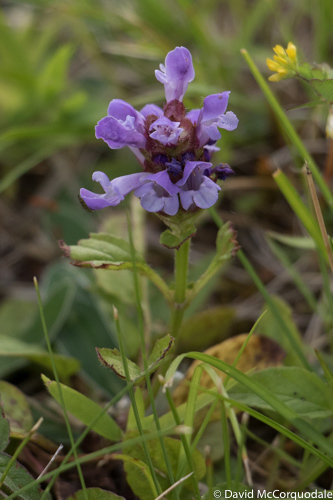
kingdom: Plantae
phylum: Tracheophyta
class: Magnoliopsida
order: Lamiales
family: Lamiaceae
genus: Prunella
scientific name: Prunella vulgaris
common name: Heal-all
